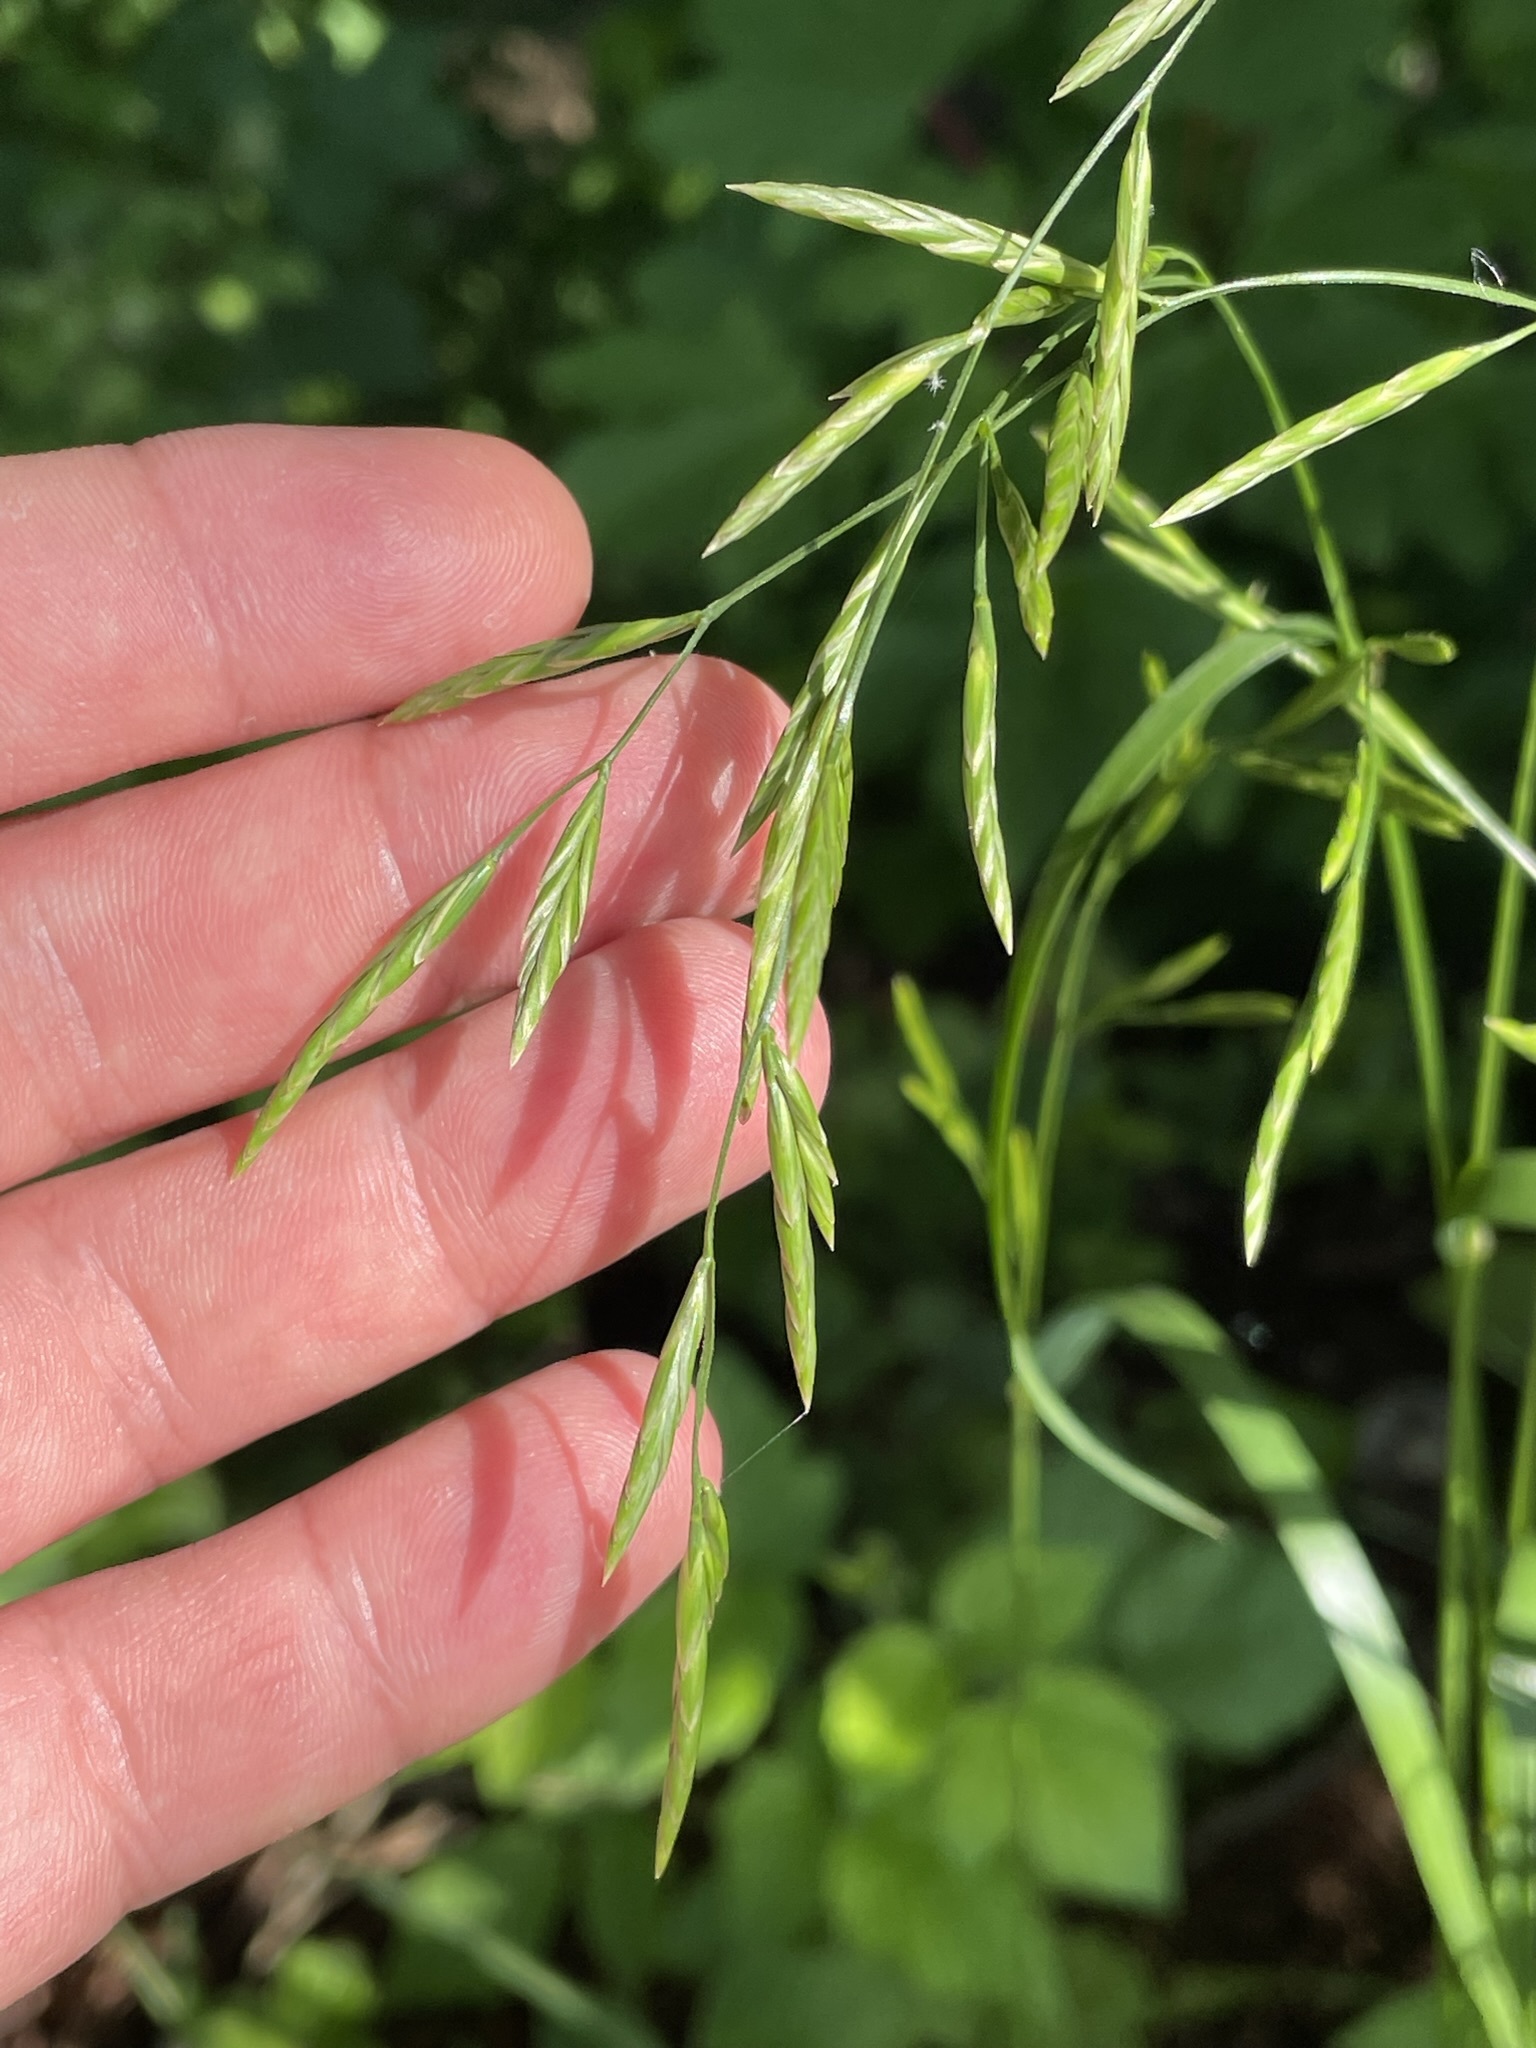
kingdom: Plantae
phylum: Tracheophyta
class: Liliopsida
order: Poales
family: Poaceae
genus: Lolium
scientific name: Lolium pratense
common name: Dover grass
